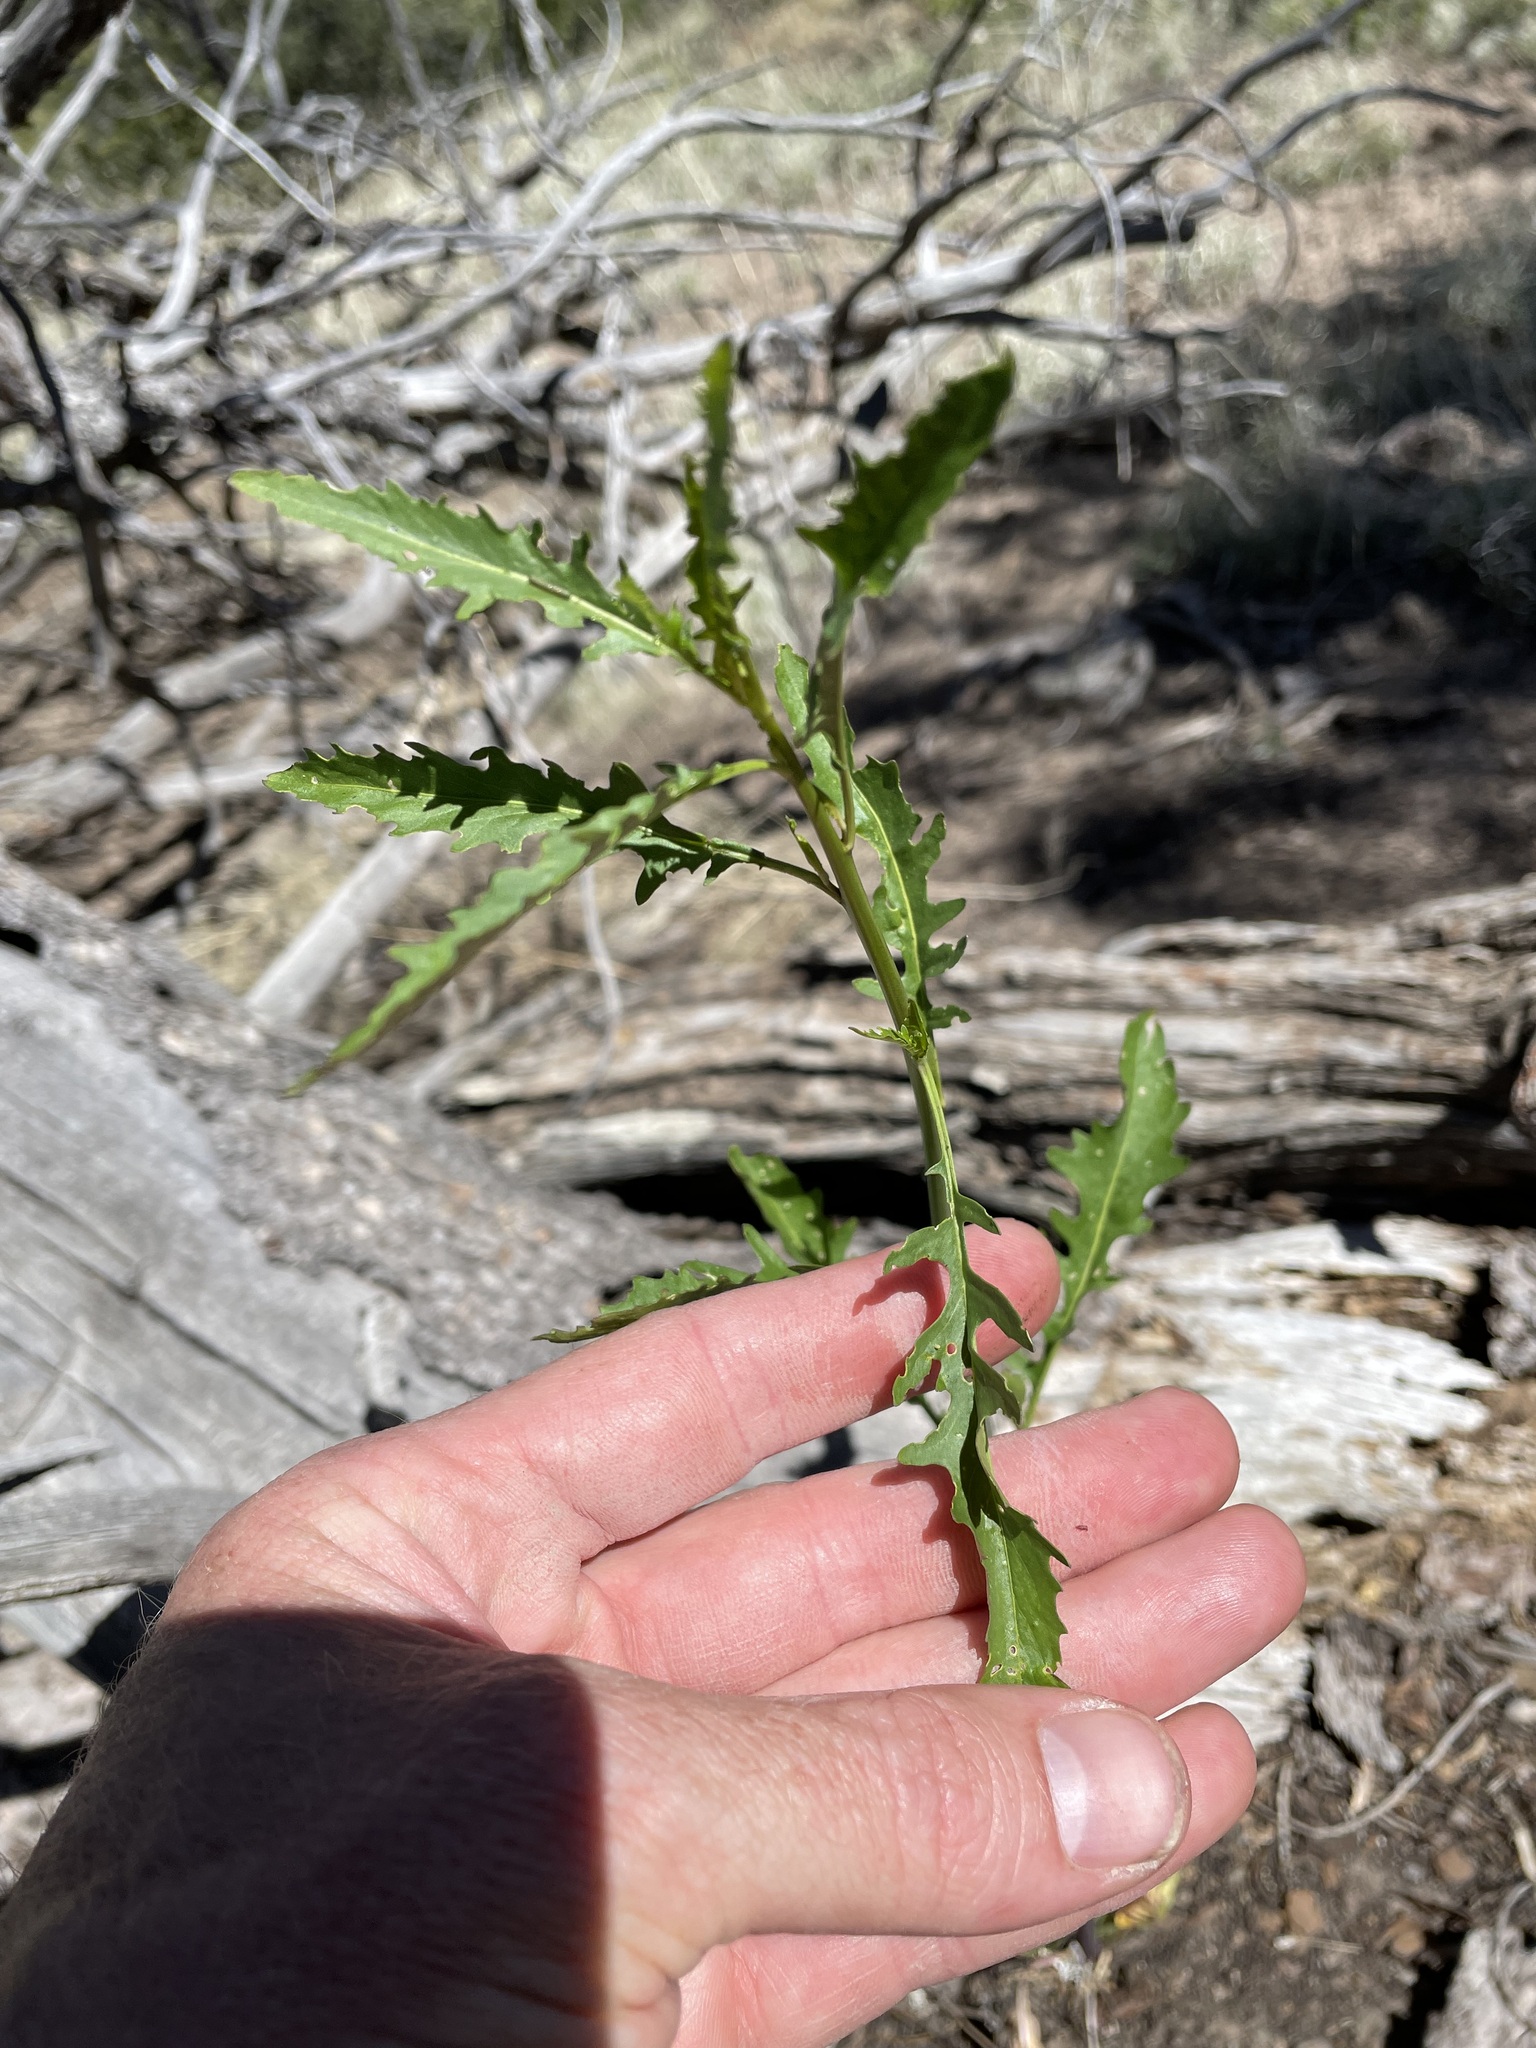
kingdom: Plantae
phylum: Tracheophyta
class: Magnoliopsida
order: Brassicales
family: Brassicaceae
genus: Thelypodium
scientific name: Thelypodium wrightii
